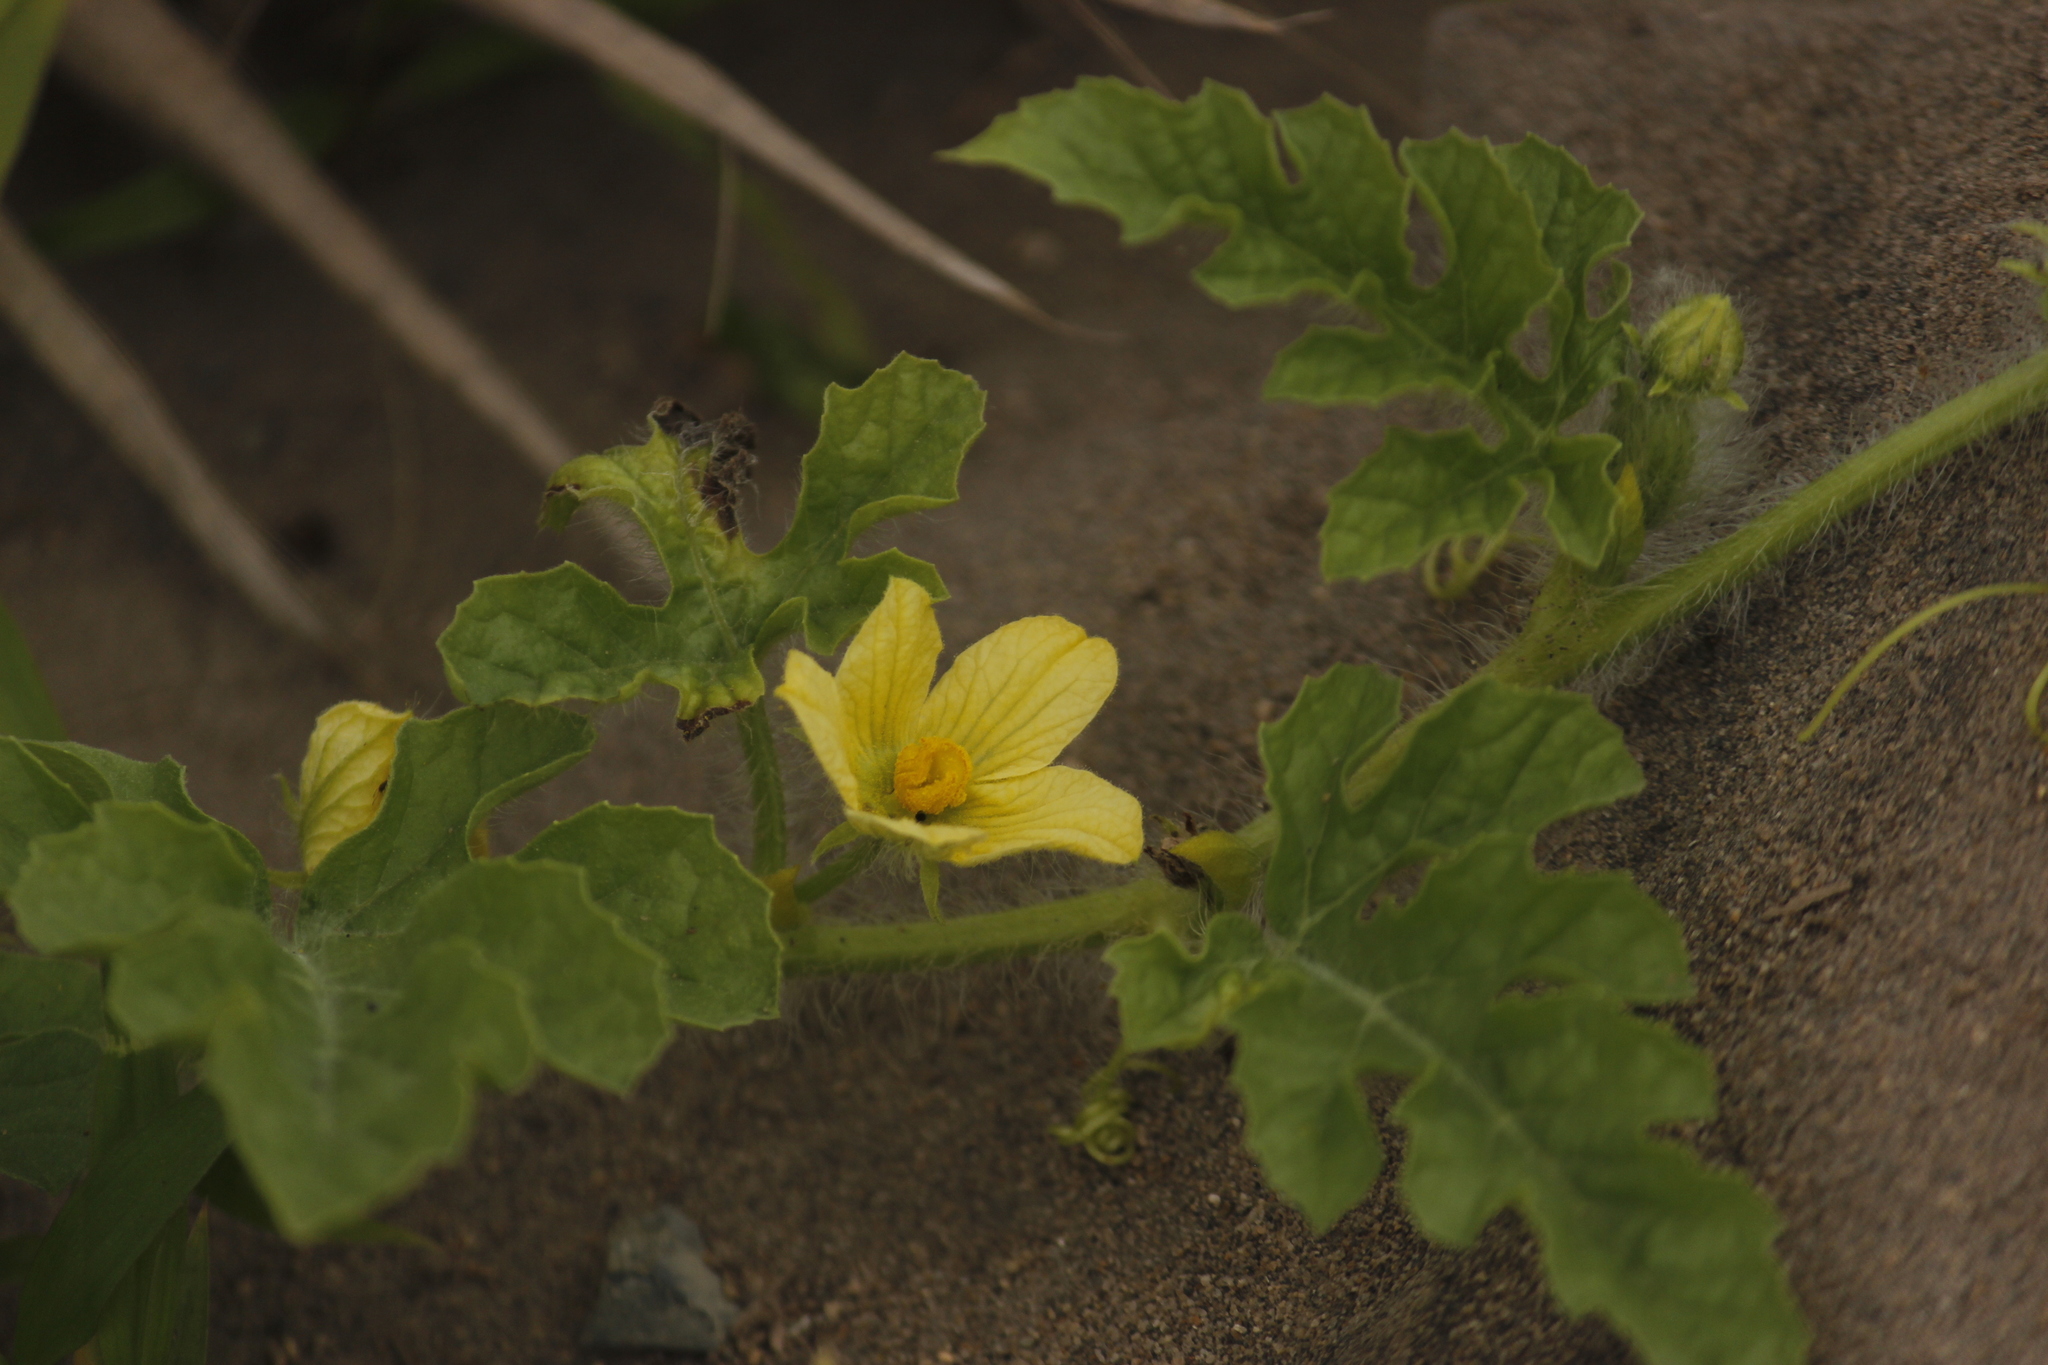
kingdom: Plantae
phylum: Tracheophyta
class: Magnoliopsida
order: Cucurbitales
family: Cucurbitaceae
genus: Citrullus
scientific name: Citrullus lanatus
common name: Watermelon
